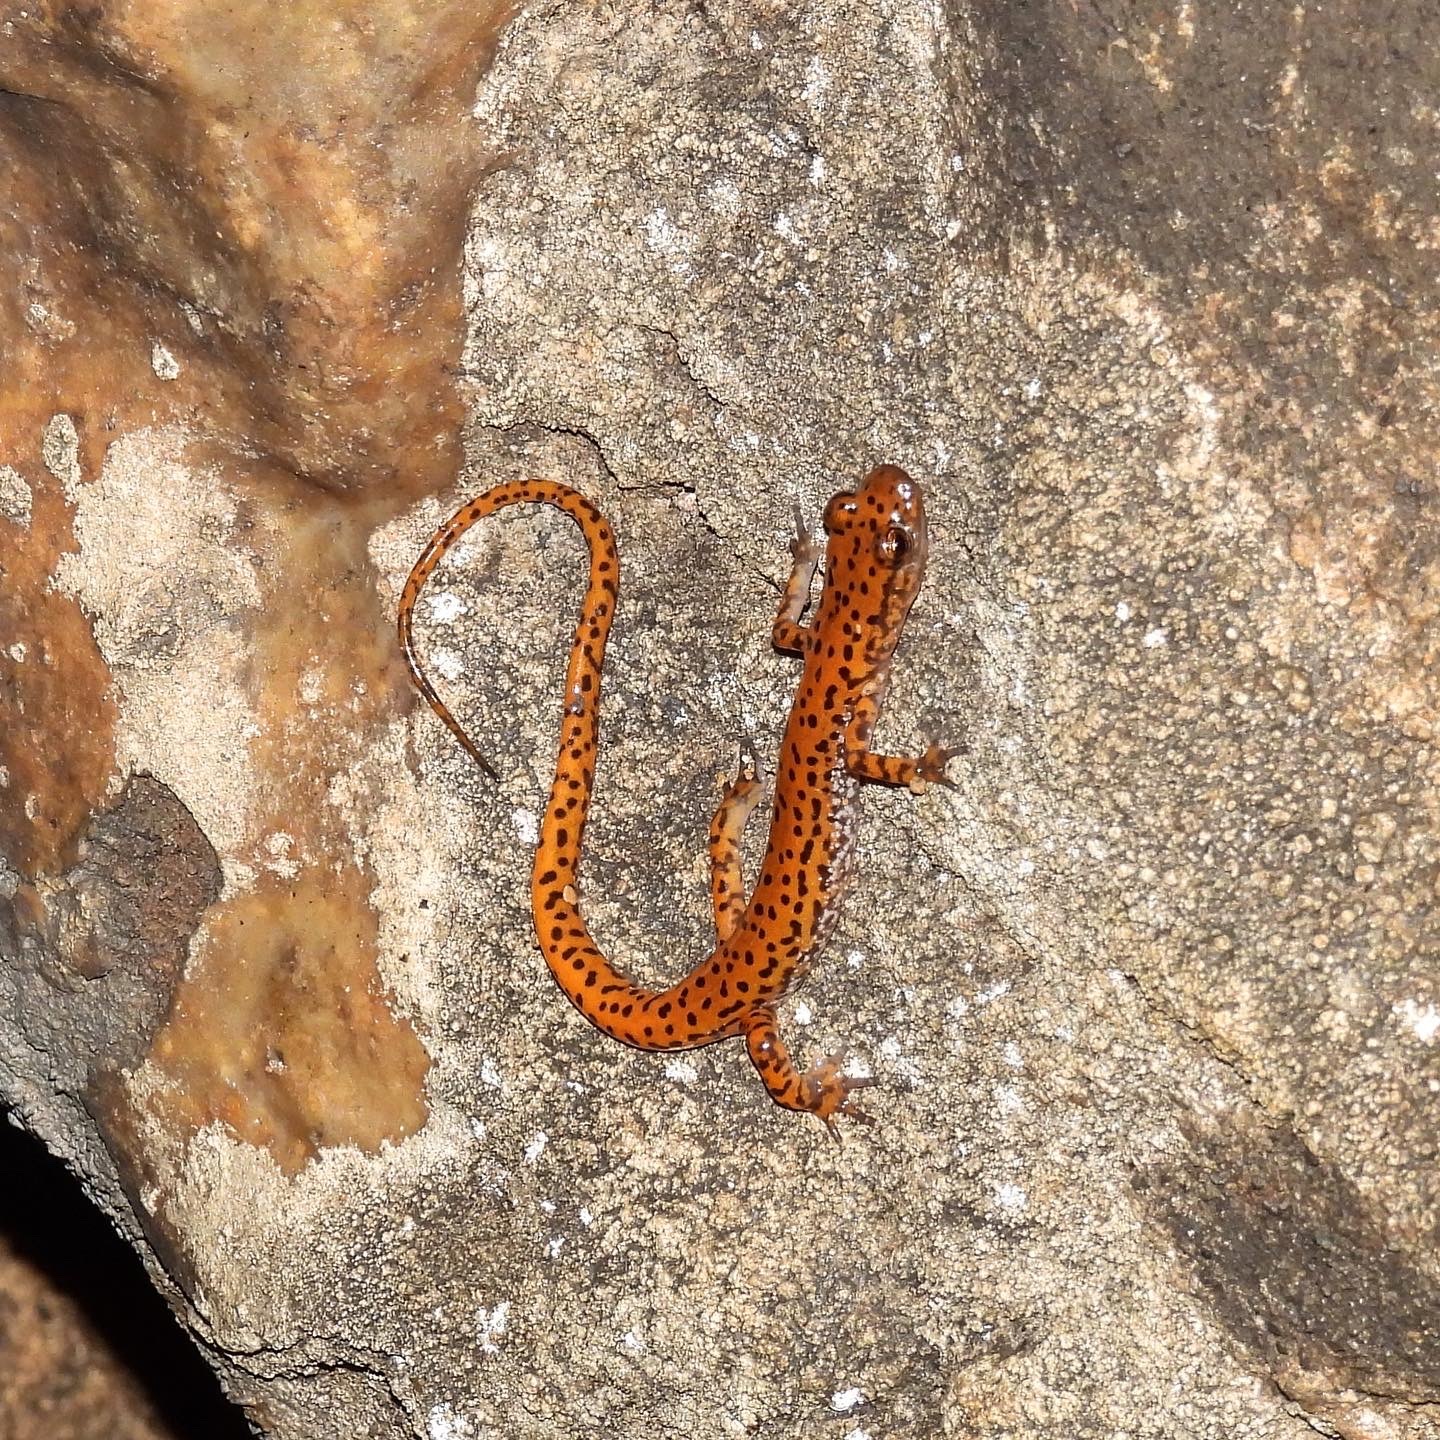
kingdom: Animalia
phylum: Chordata
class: Amphibia
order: Caudata
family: Plethodontidae
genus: Eurycea
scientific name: Eurycea lucifuga
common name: Cave salamander
